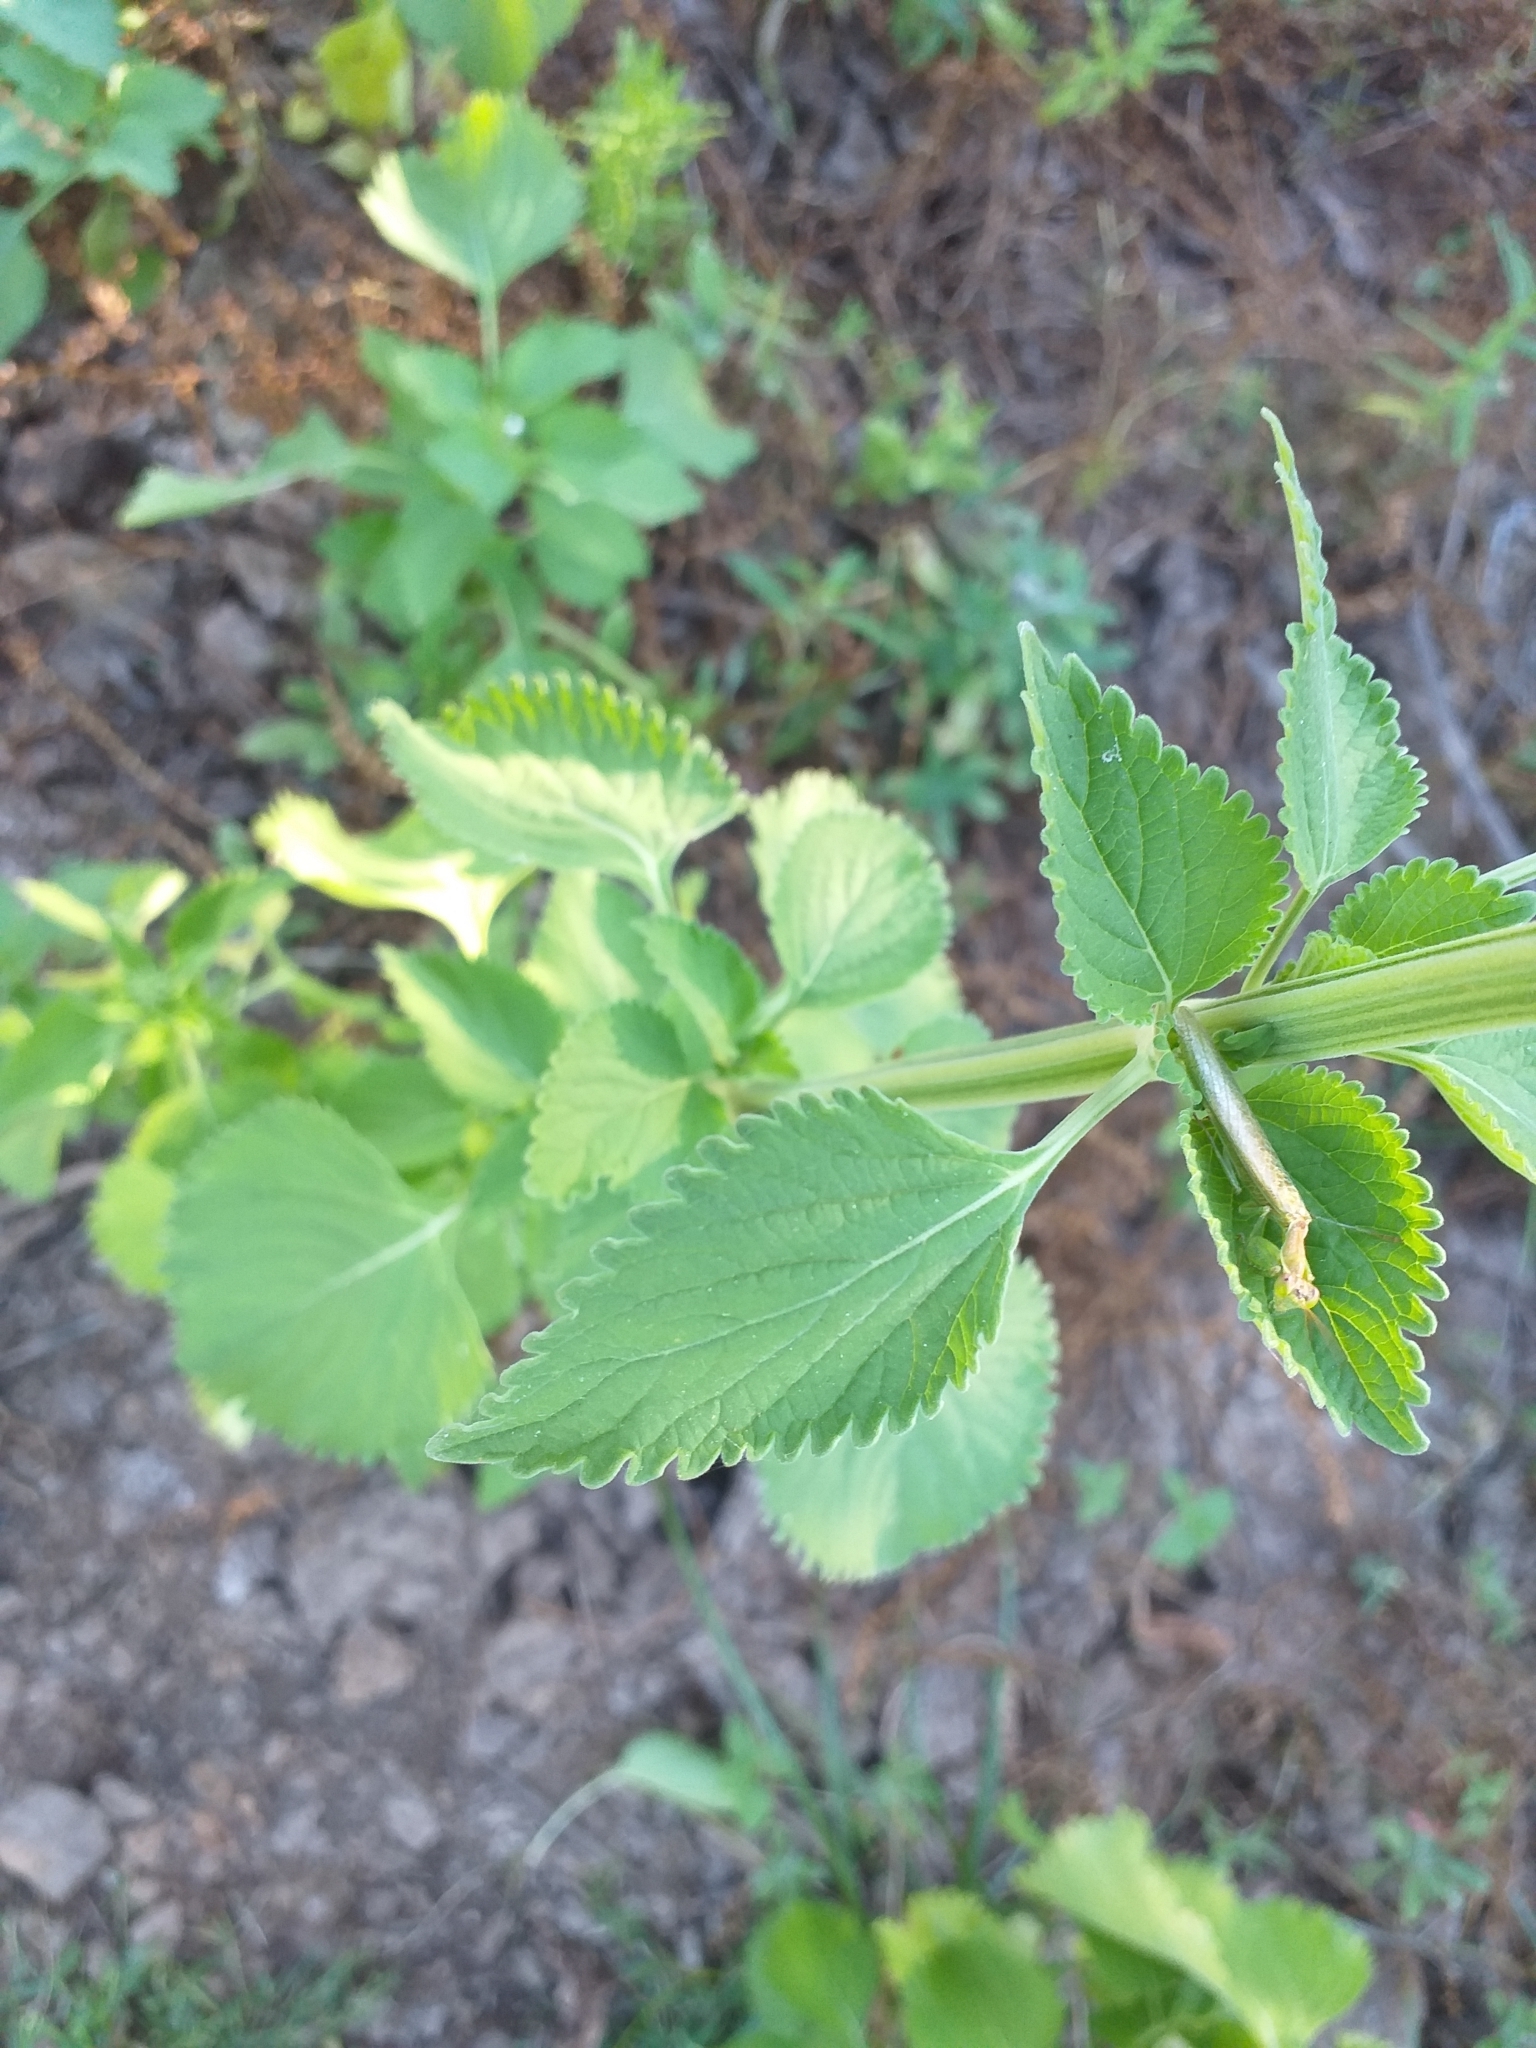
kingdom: Plantae
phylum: Tracheophyta
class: Magnoliopsida
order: Lamiales
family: Lamiaceae
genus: Leonotis
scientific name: Leonotis nepetifolia
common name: Christmas candlestick
